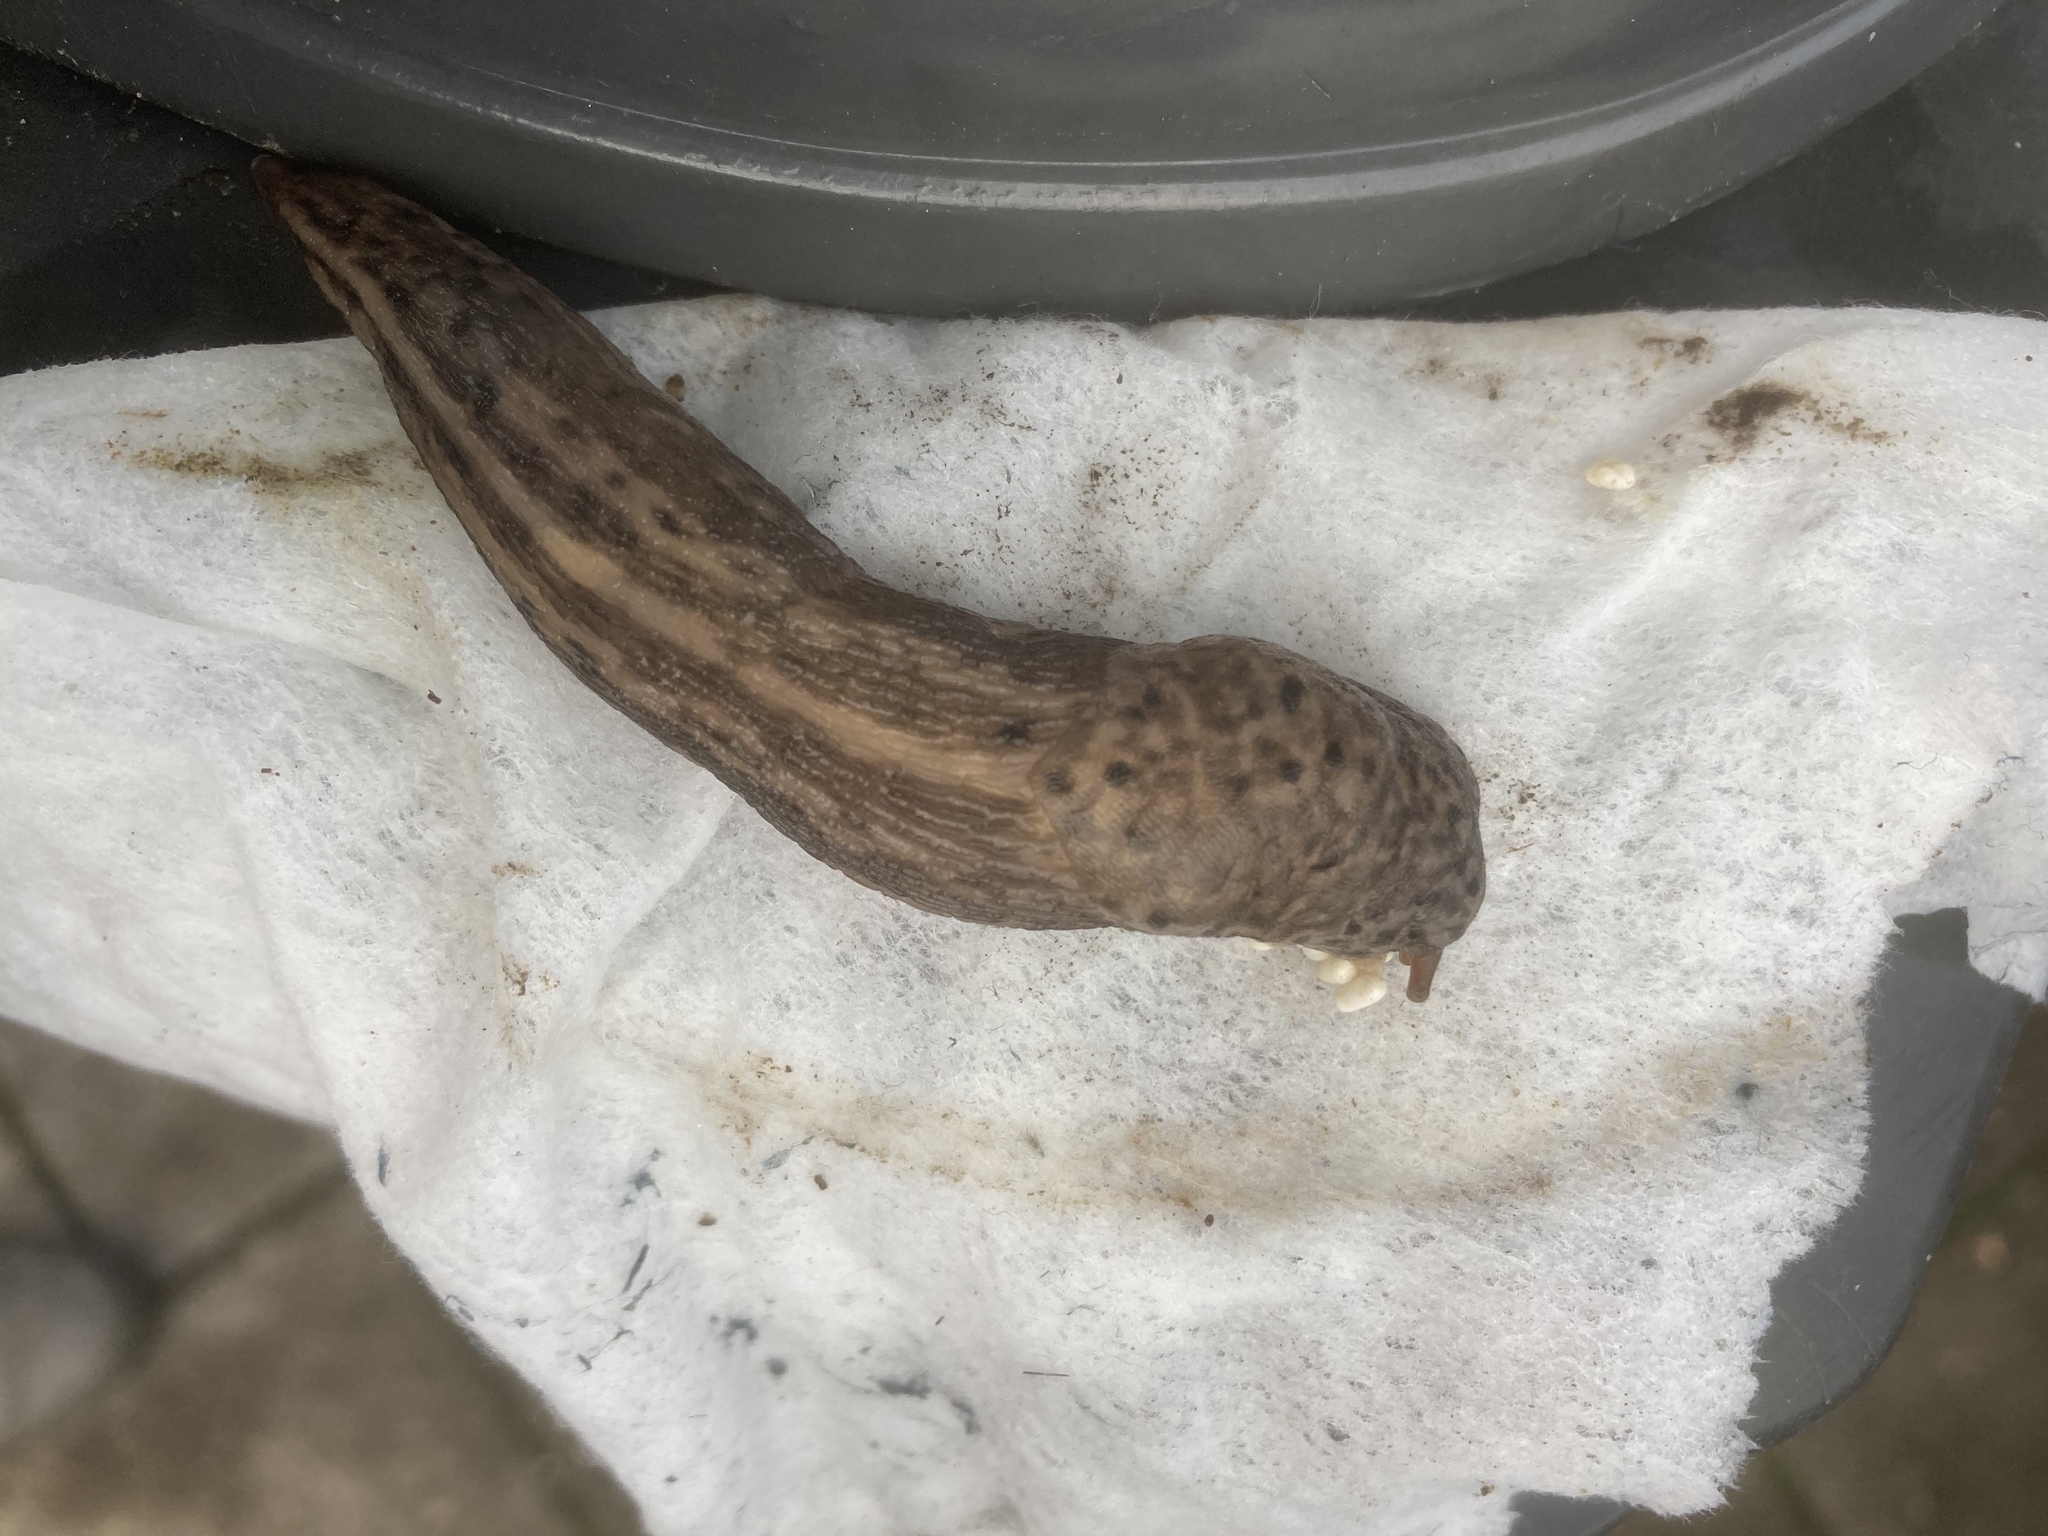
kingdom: Animalia
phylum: Mollusca
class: Gastropoda
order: Stylommatophora
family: Limacidae
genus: Limax
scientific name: Limax maximus
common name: Great grey slug
